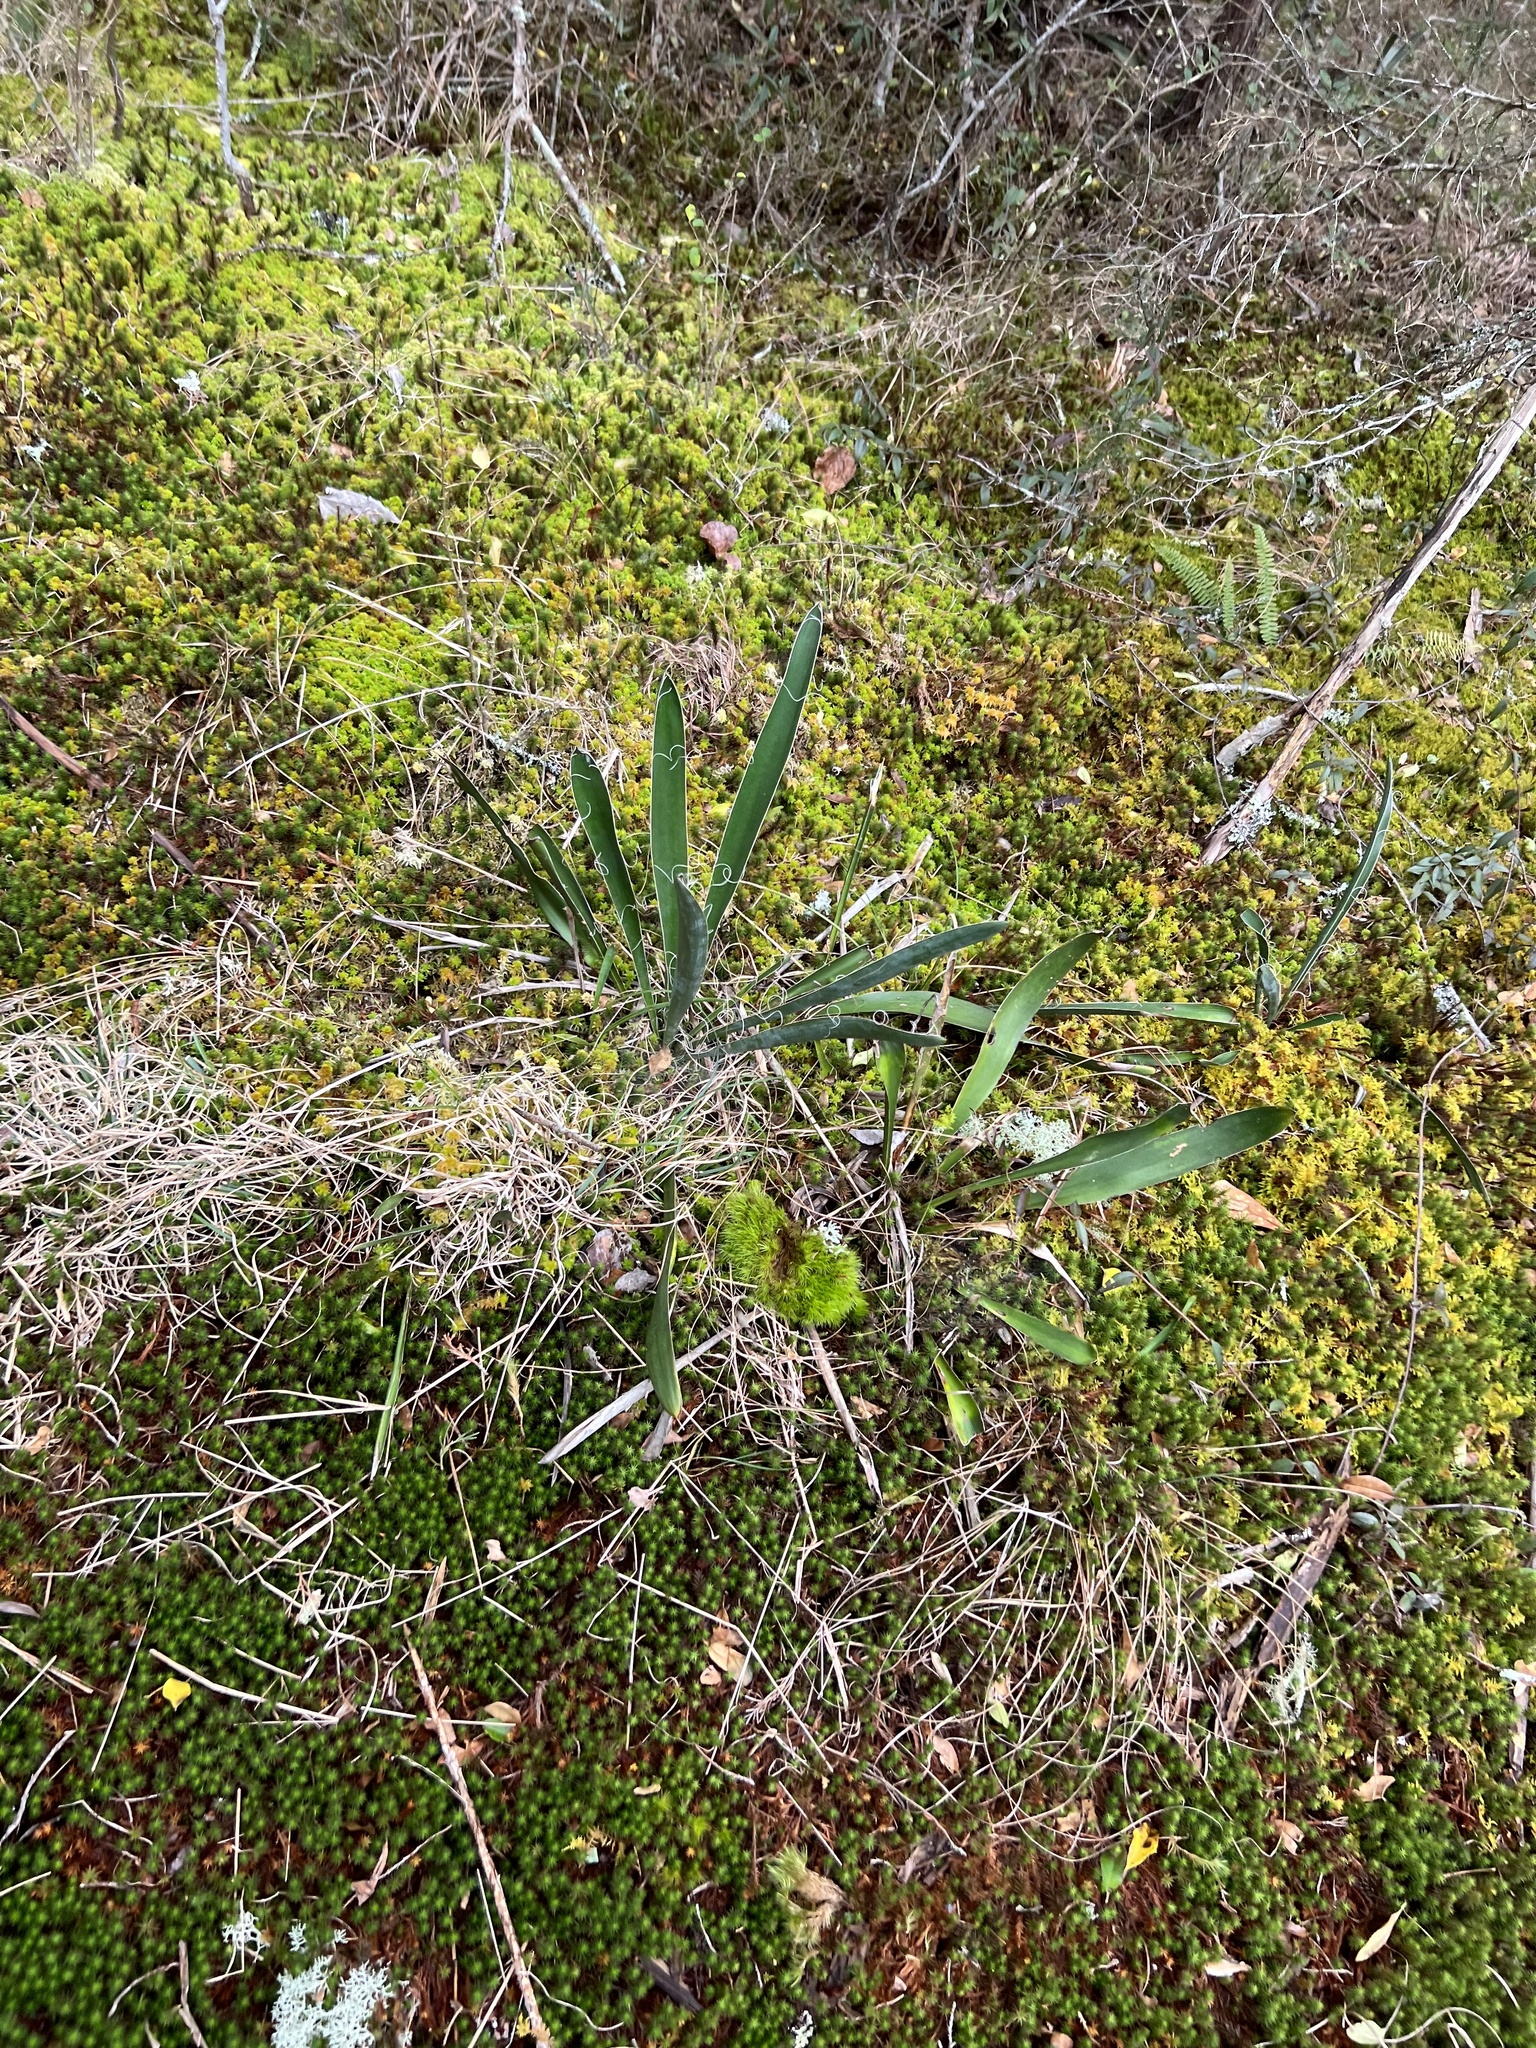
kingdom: Plantae
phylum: Tracheophyta
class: Liliopsida
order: Asparagales
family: Asparagaceae
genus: Yucca
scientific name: Yucca filamentosa
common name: Adam's-needle
